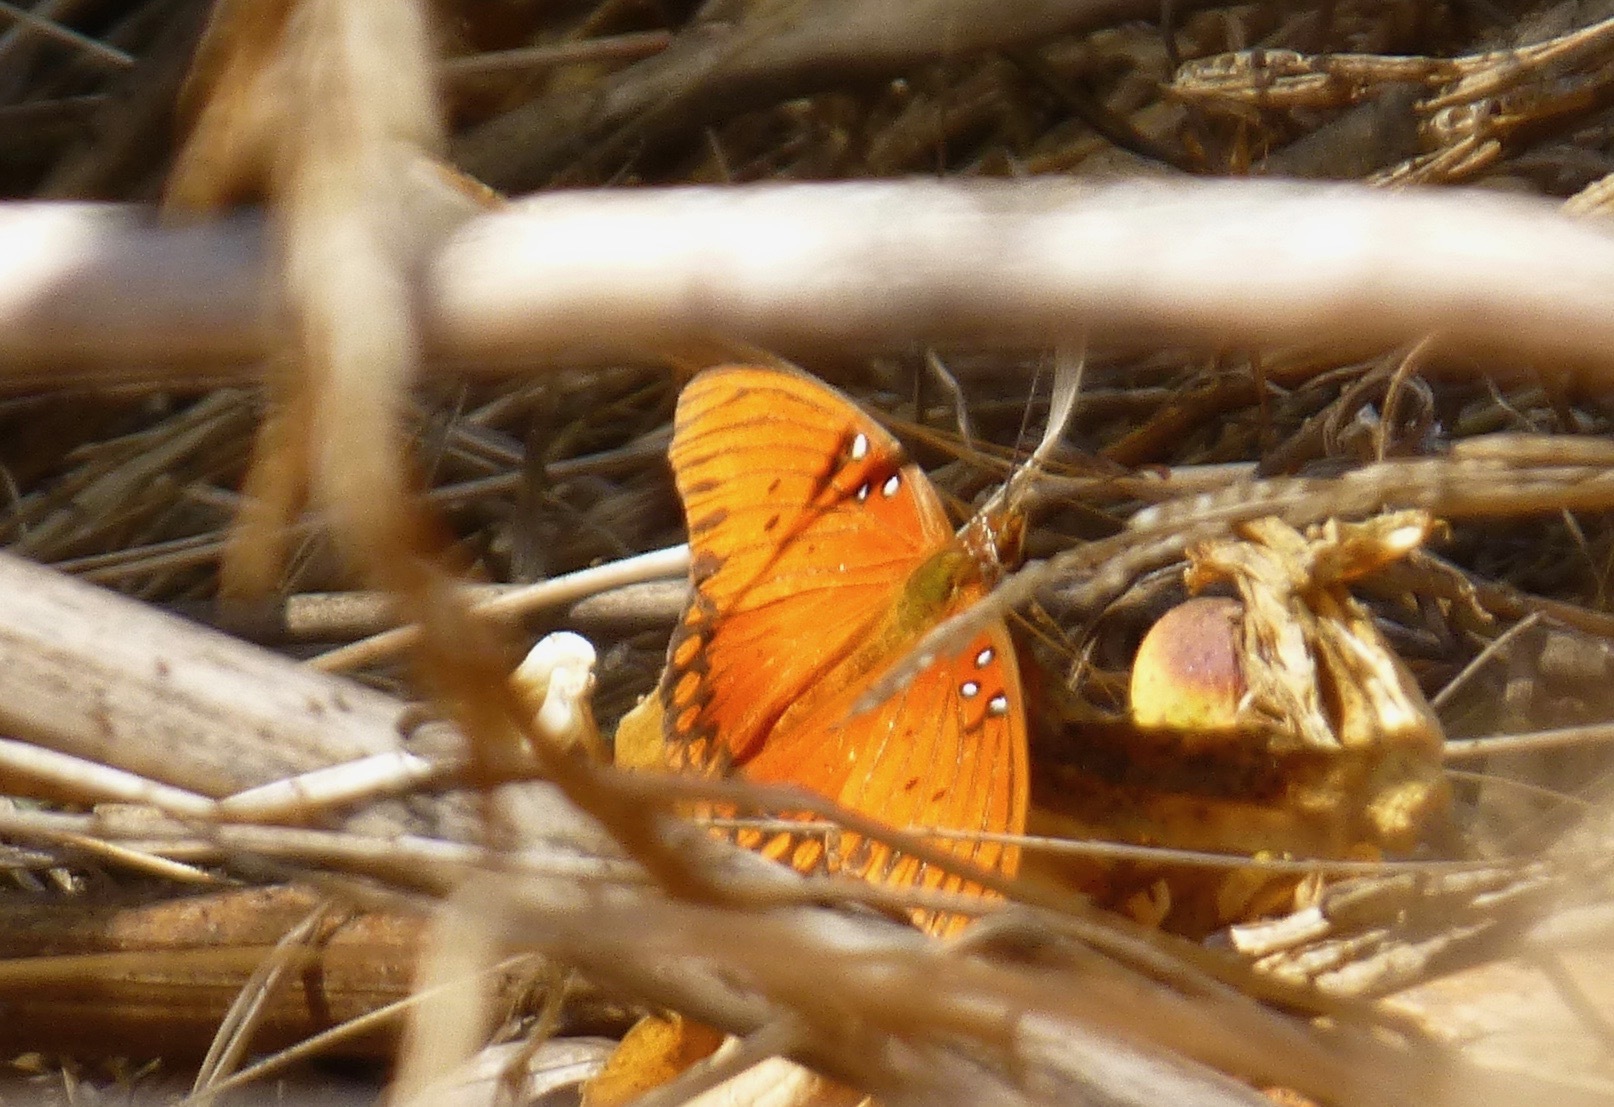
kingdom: Animalia
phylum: Arthropoda
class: Insecta
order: Lepidoptera
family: Nymphalidae
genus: Dione
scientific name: Dione vanillae
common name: Gulf fritillary
